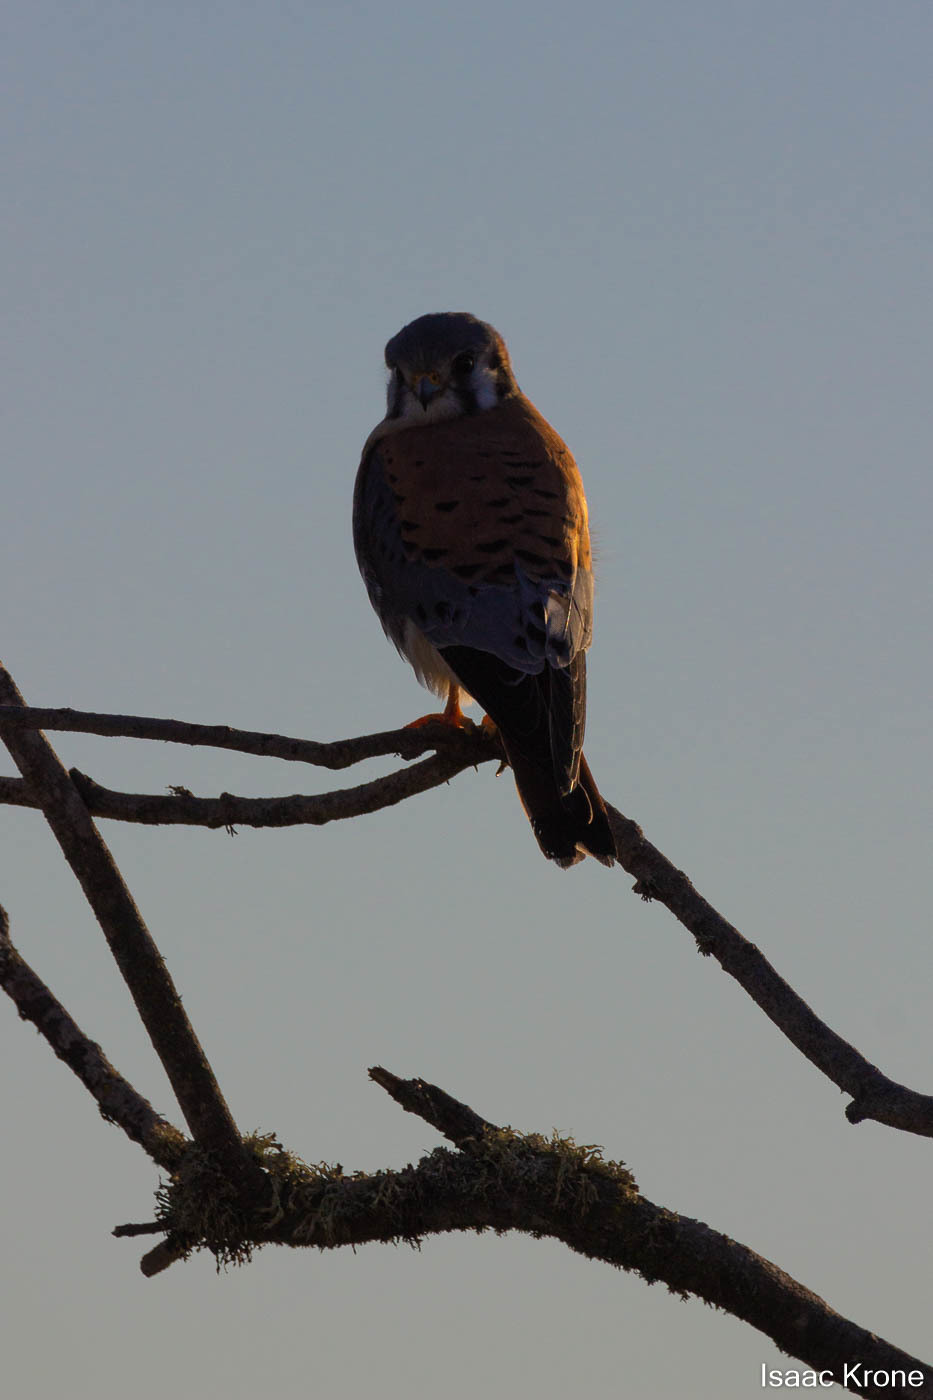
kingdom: Animalia
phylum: Chordata
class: Aves
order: Falconiformes
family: Falconidae
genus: Falco
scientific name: Falco sparverius
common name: American kestrel
